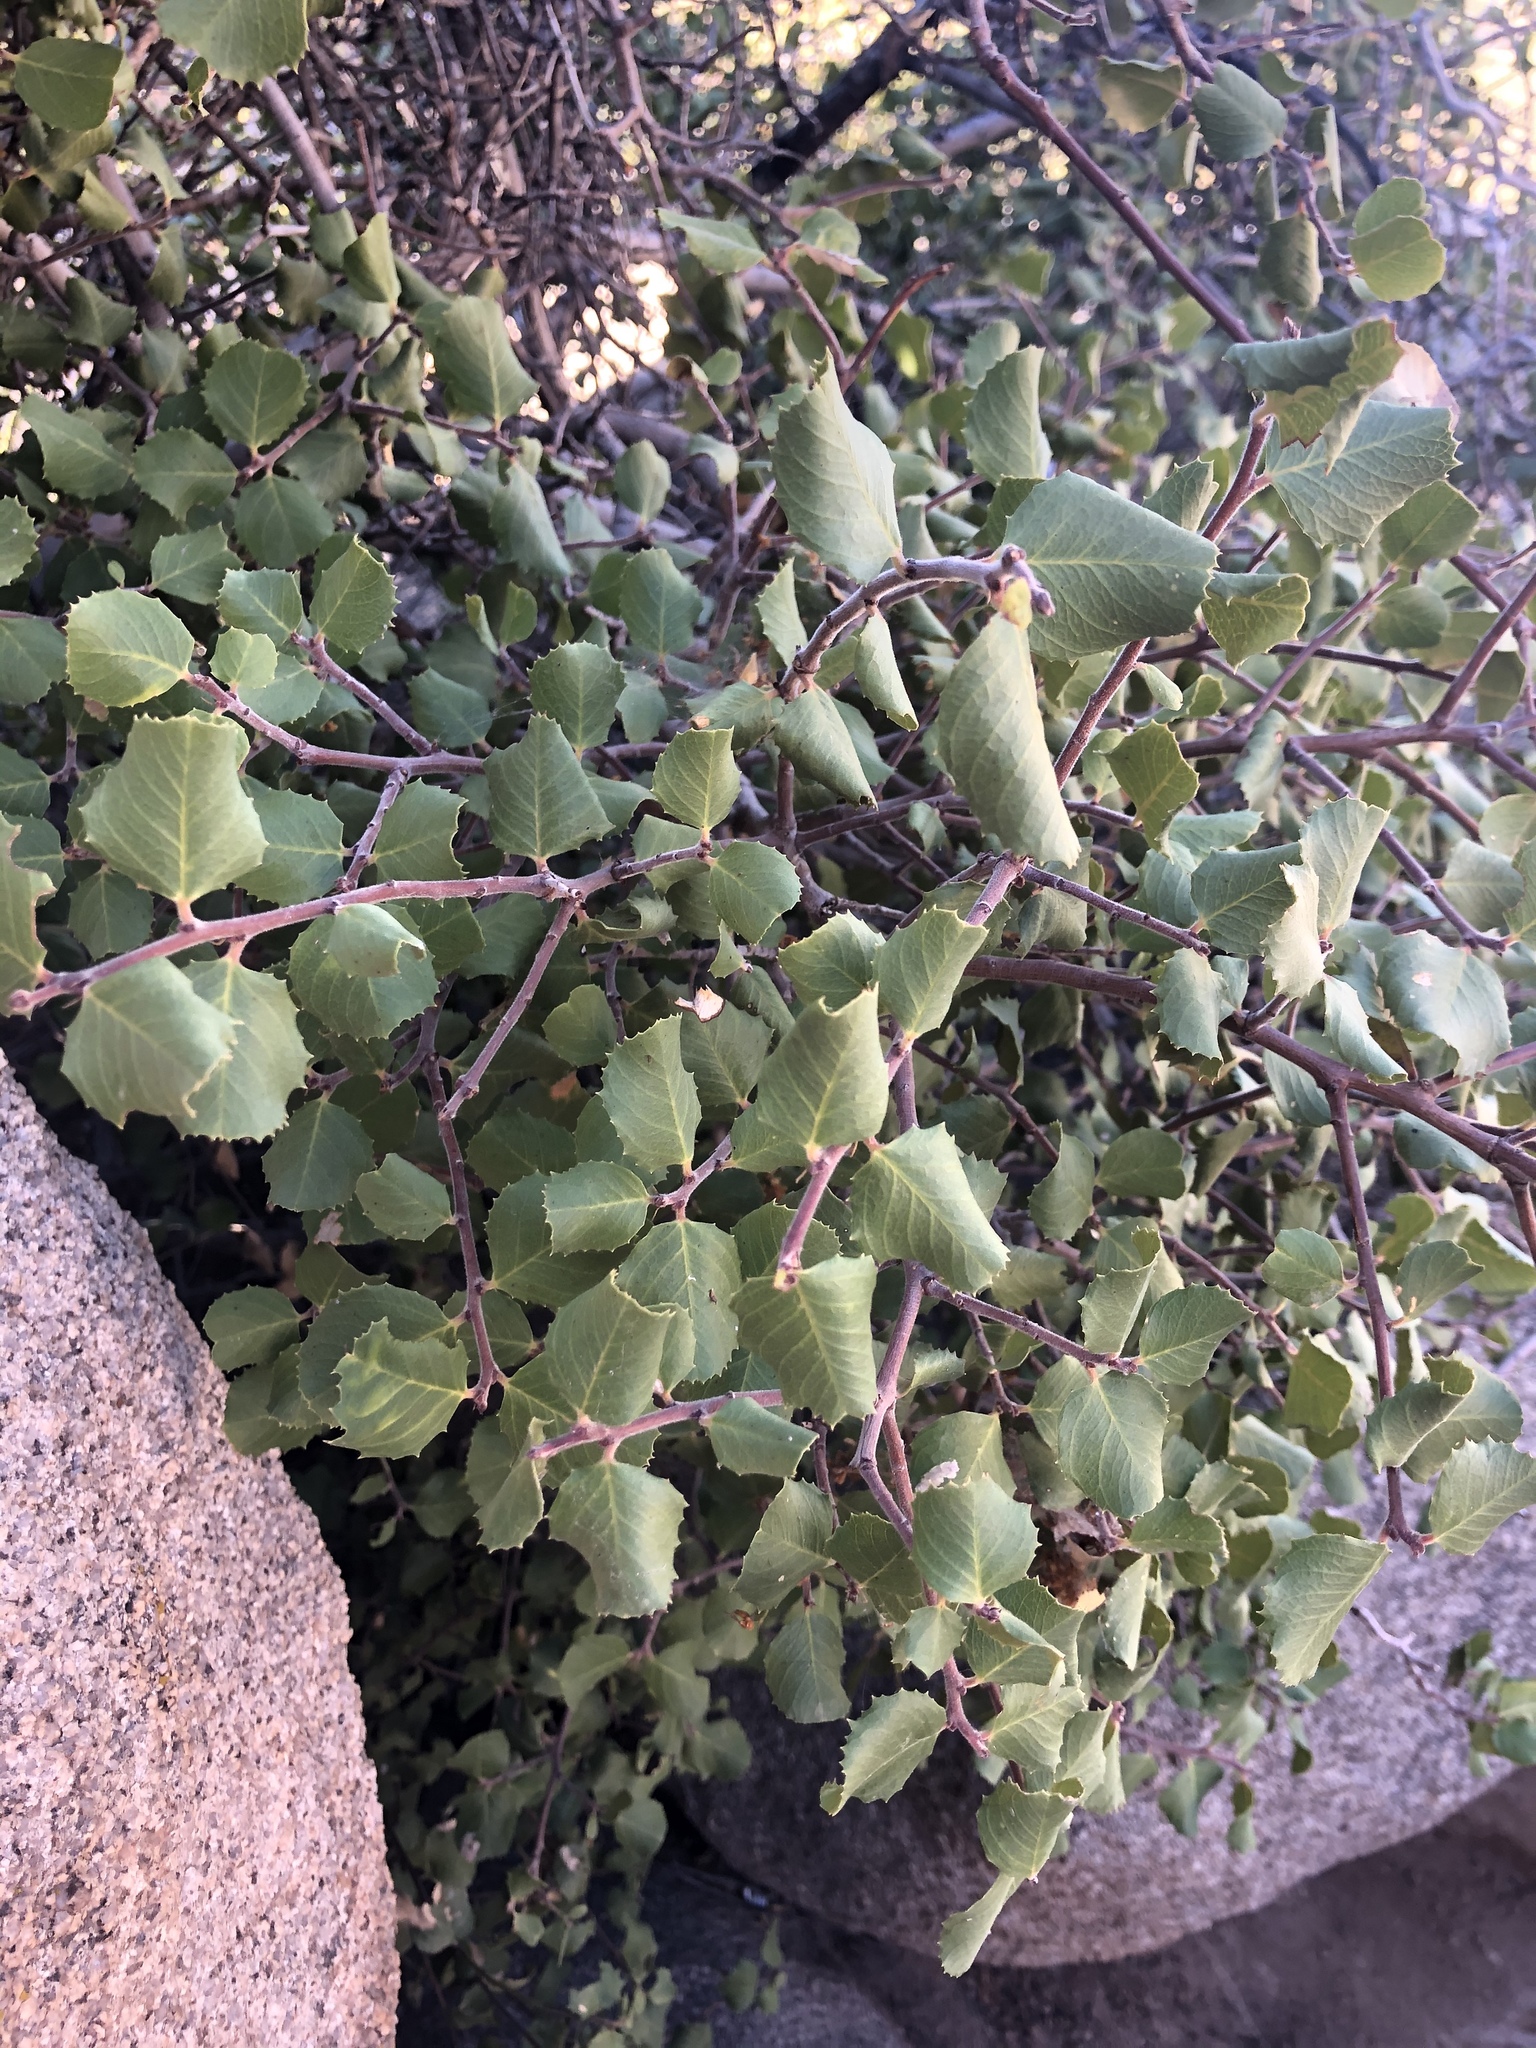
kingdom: Plantae
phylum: Tracheophyta
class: Magnoliopsida
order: Rosales
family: Rhamnaceae
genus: Endotropis
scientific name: Endotropis crocea
